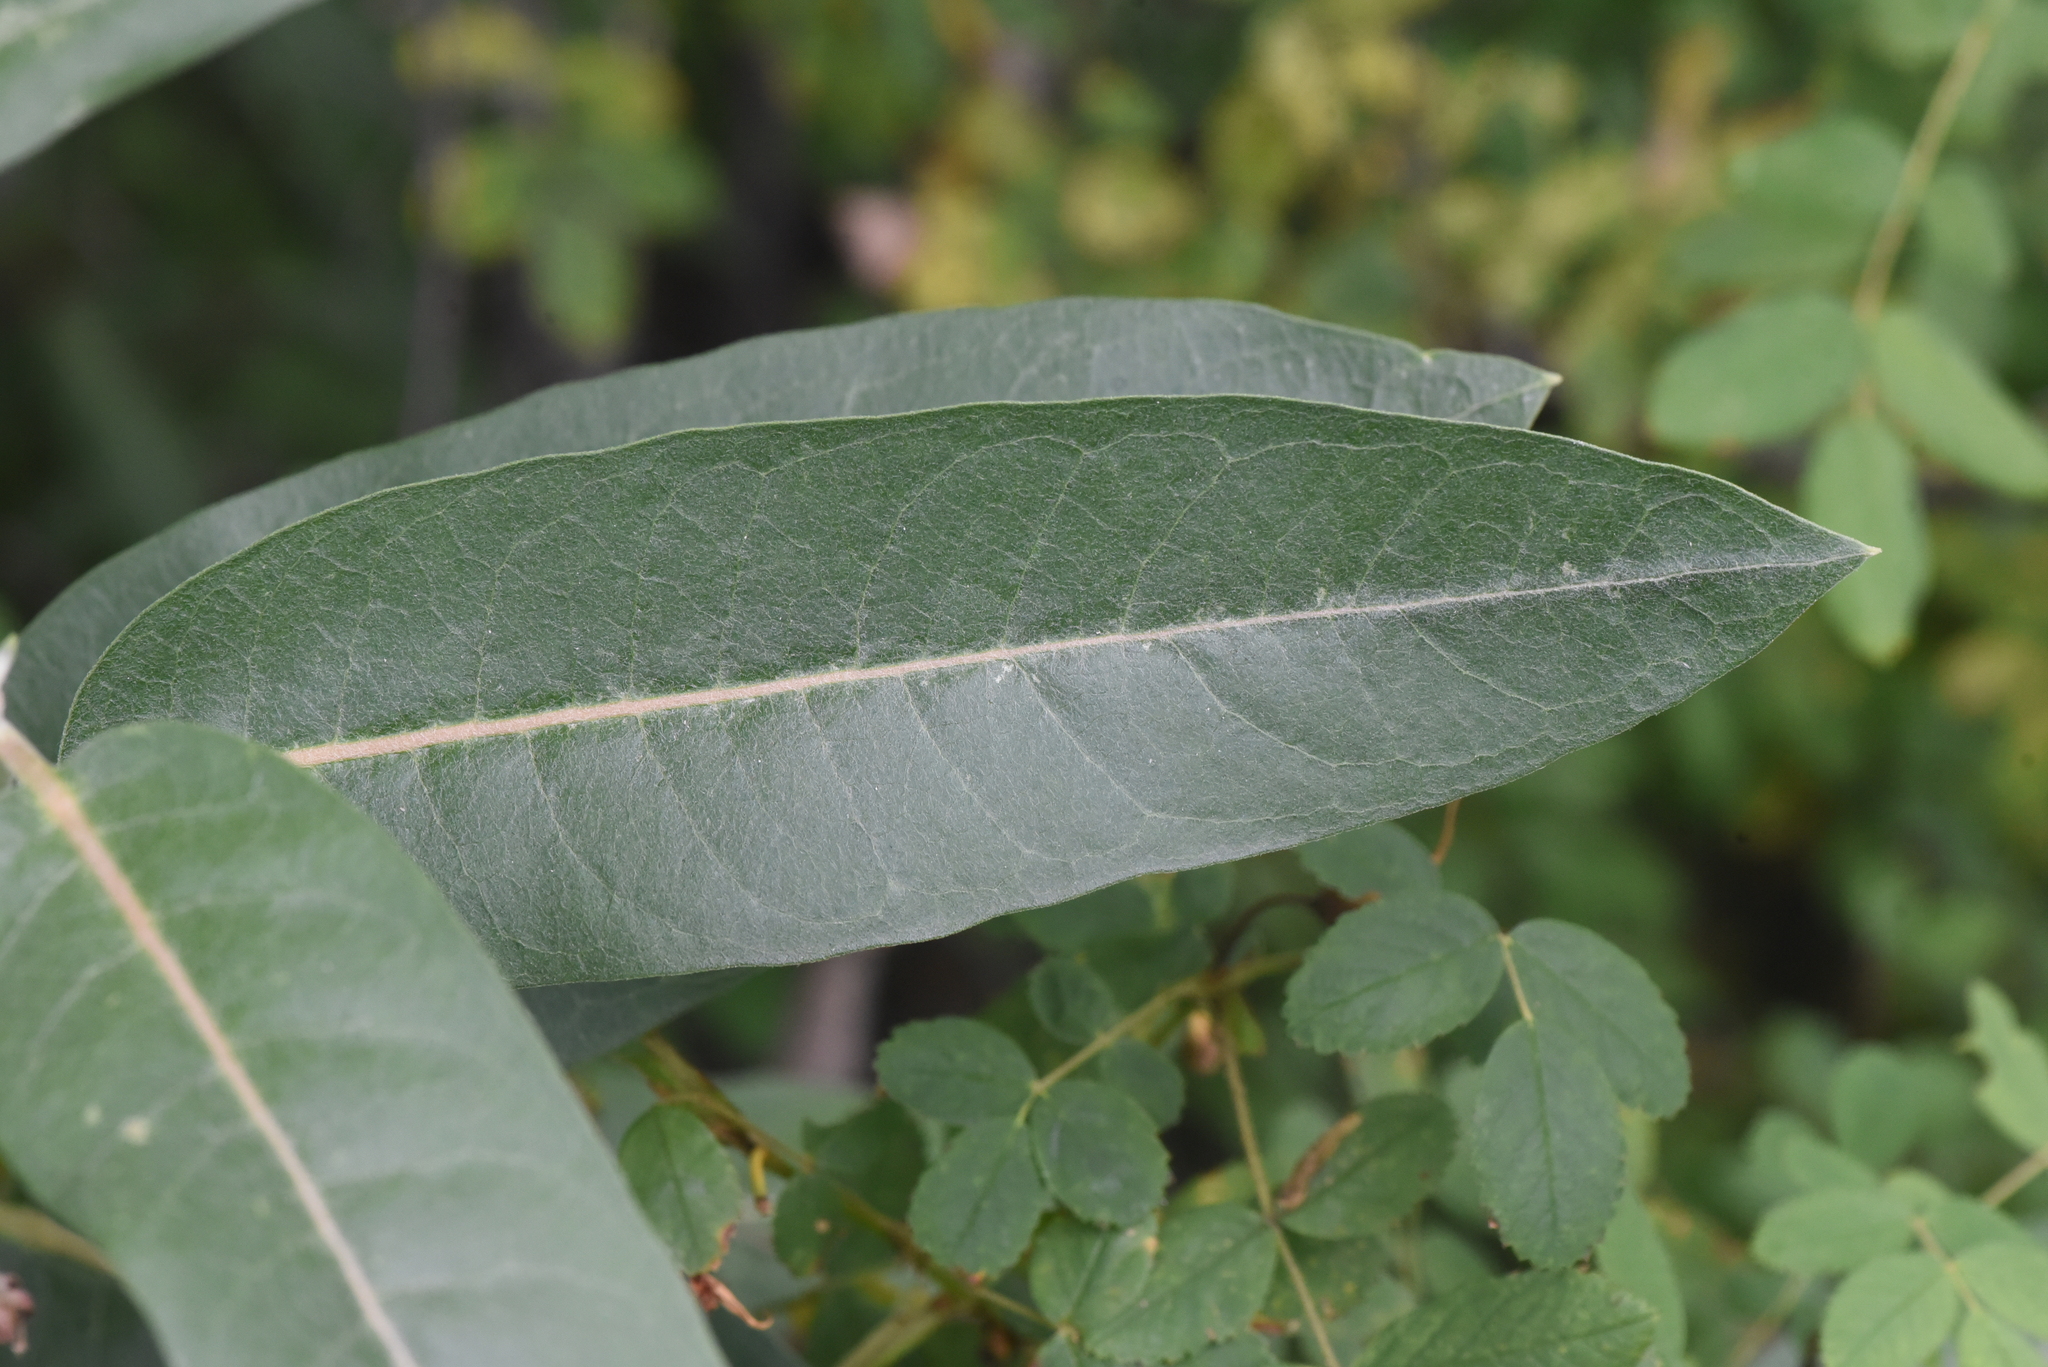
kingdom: Plantae
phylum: Tracheophyta
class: Magnoliopsida
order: Gentianales
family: Apocynaceae
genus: Asclepias
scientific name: Asclepias speciosa
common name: Showy milkweed
